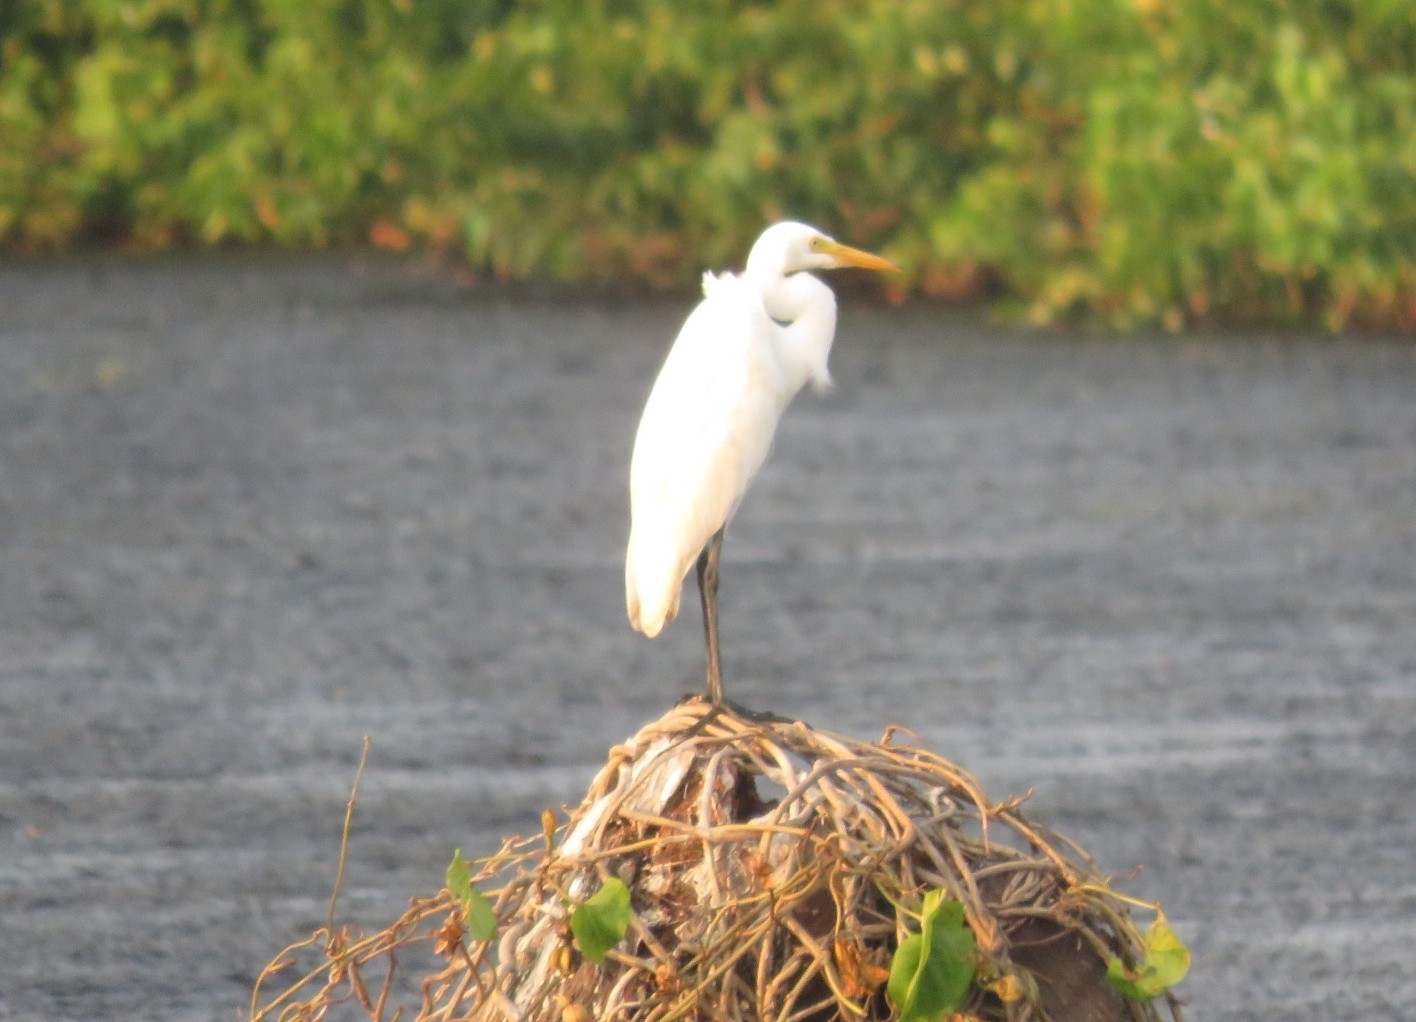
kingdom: Animalia
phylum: Chordata
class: Aves
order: Pelecaniformes
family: Ardeidae
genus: Egretta
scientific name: Egretta intermedia
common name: Intermediate egret
